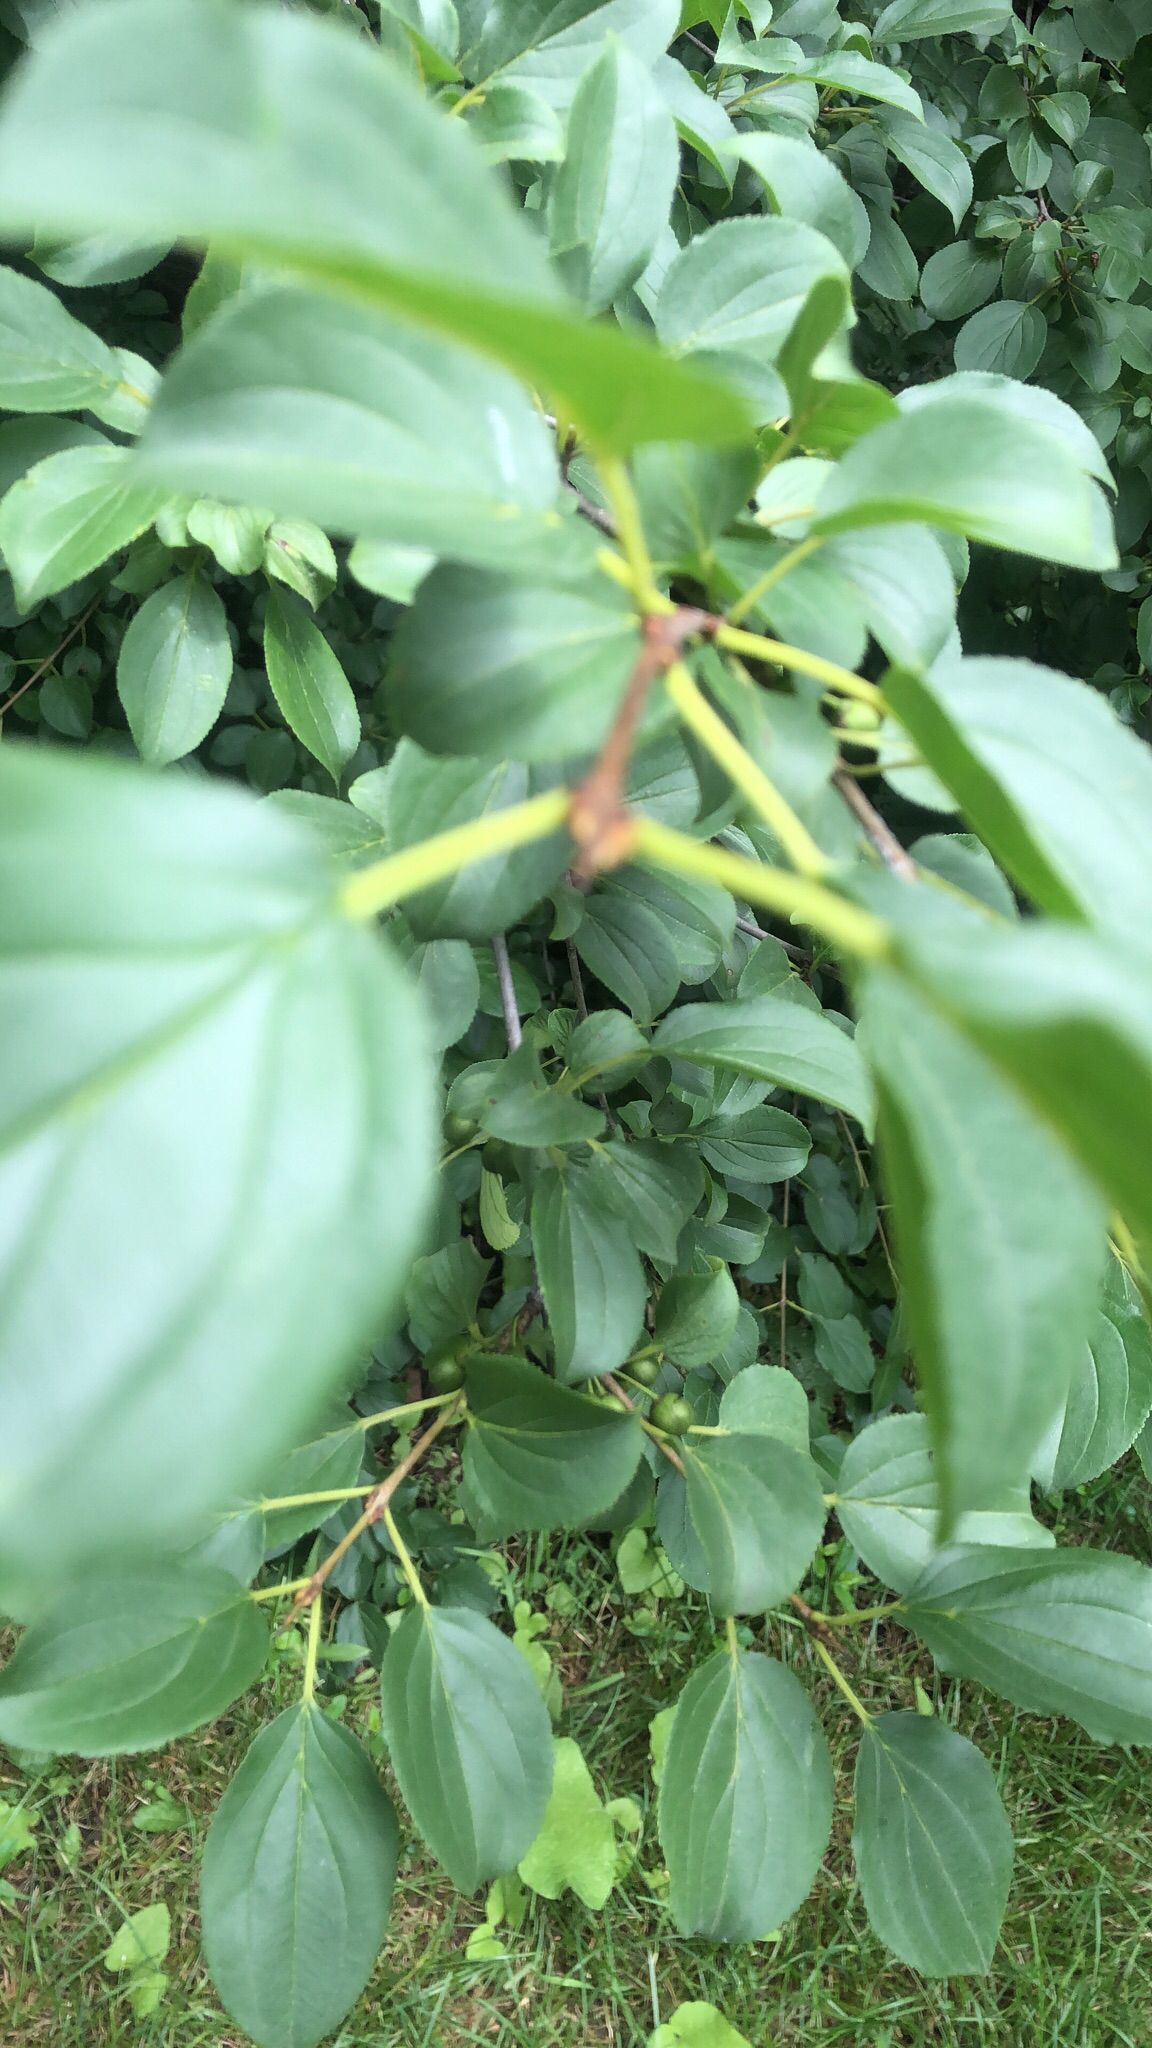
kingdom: Plantae
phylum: Tracheophyta
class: Magnoliopsida
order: Rosales
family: Rhamnaceae
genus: Rhamnus
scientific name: Rhamnus cathartica
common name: Common buckthorn
